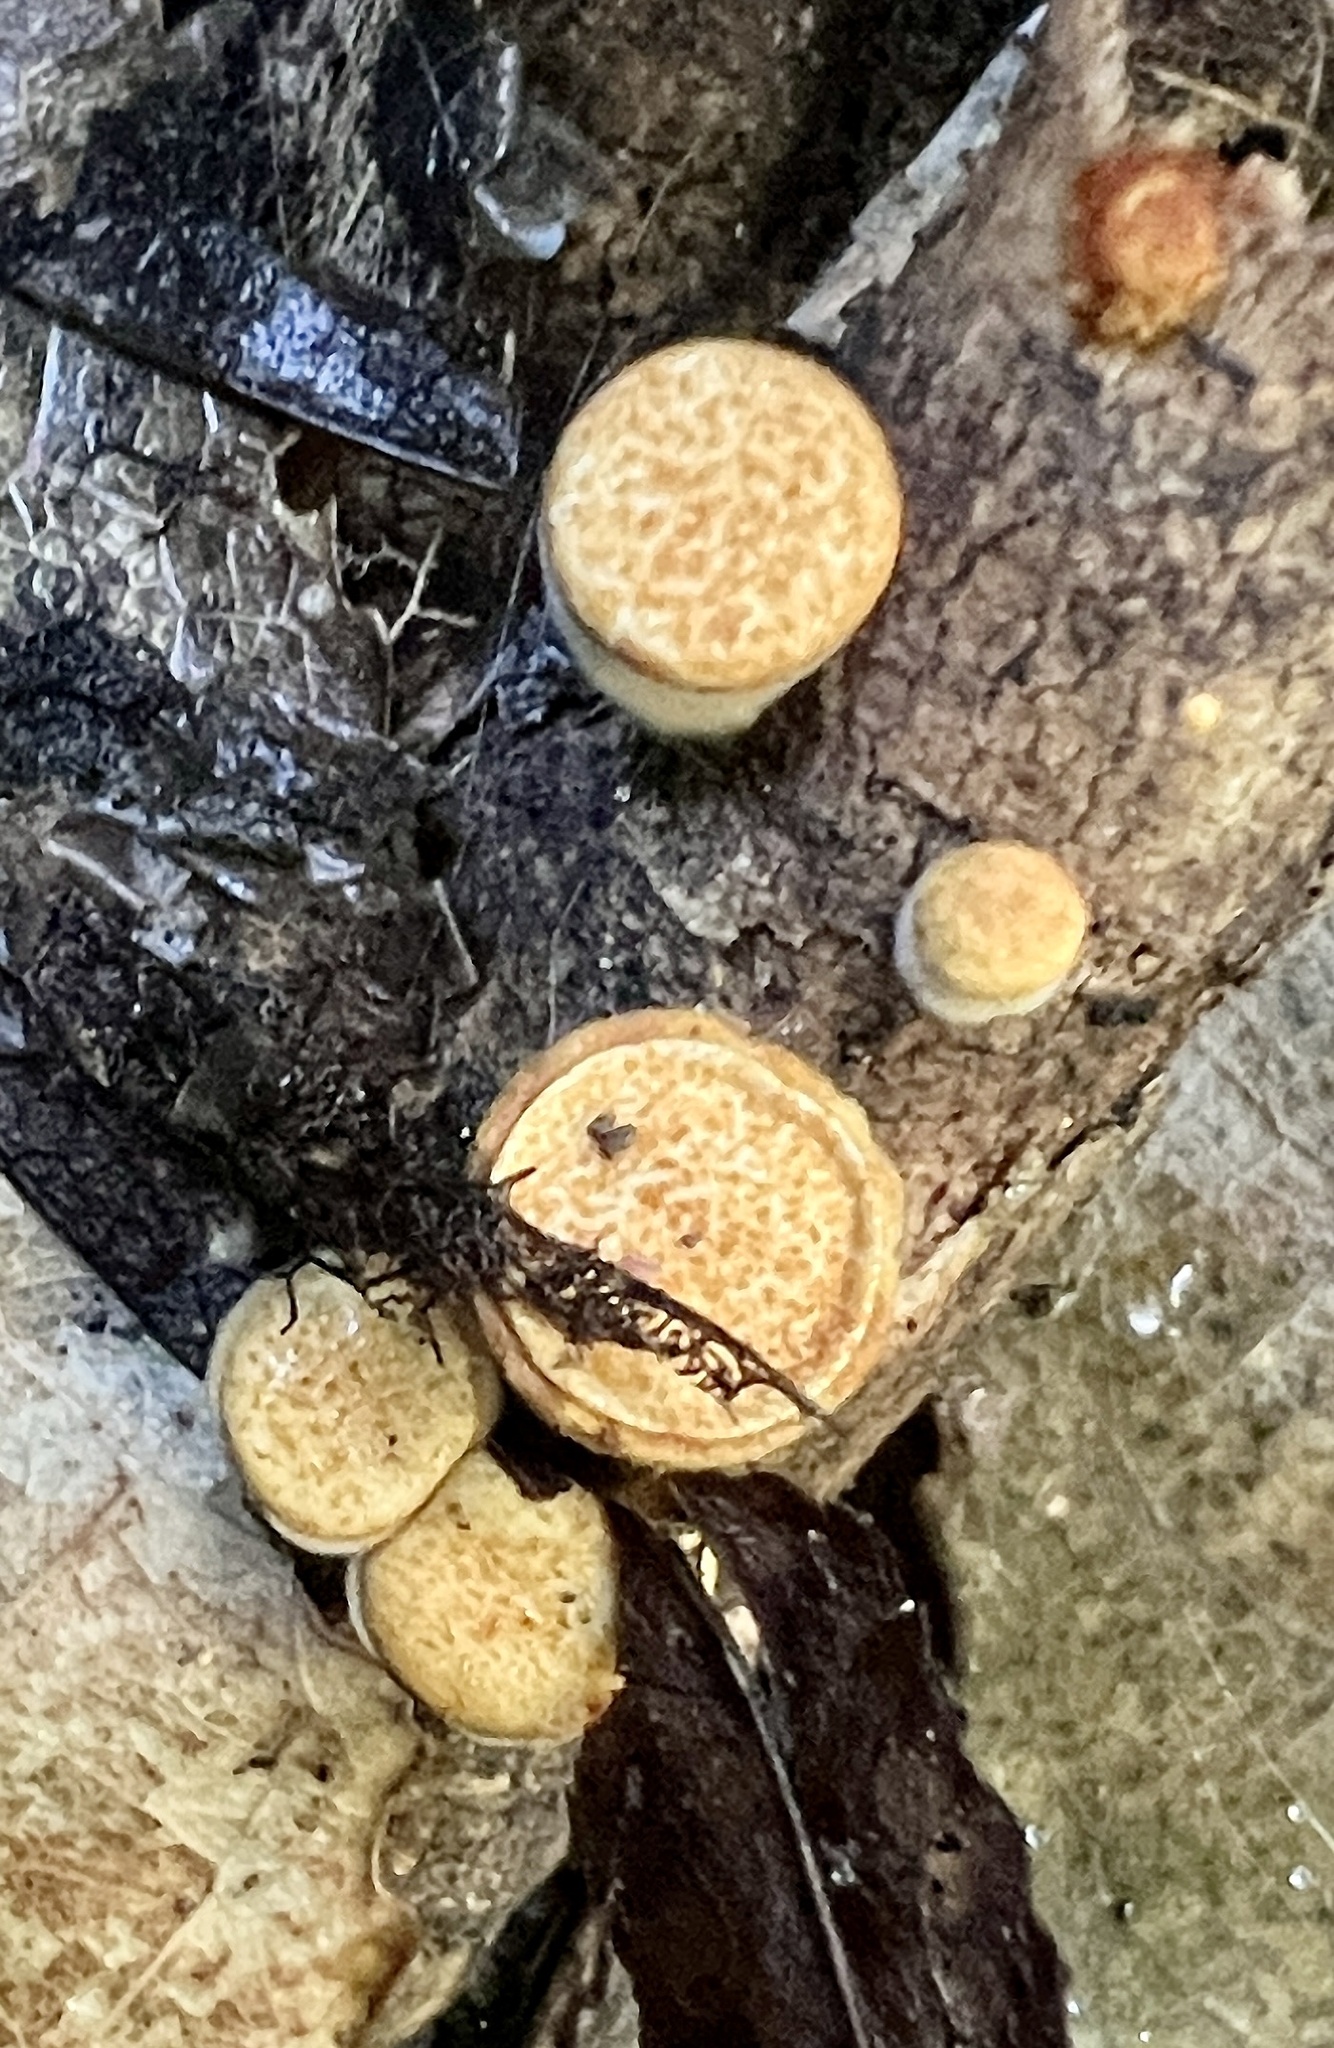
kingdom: Fungi
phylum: Basidiomycota
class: Agaricomycetes
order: Agaricales
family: Nidulariaceae
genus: Crucibulum
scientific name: Crucibulum simile
